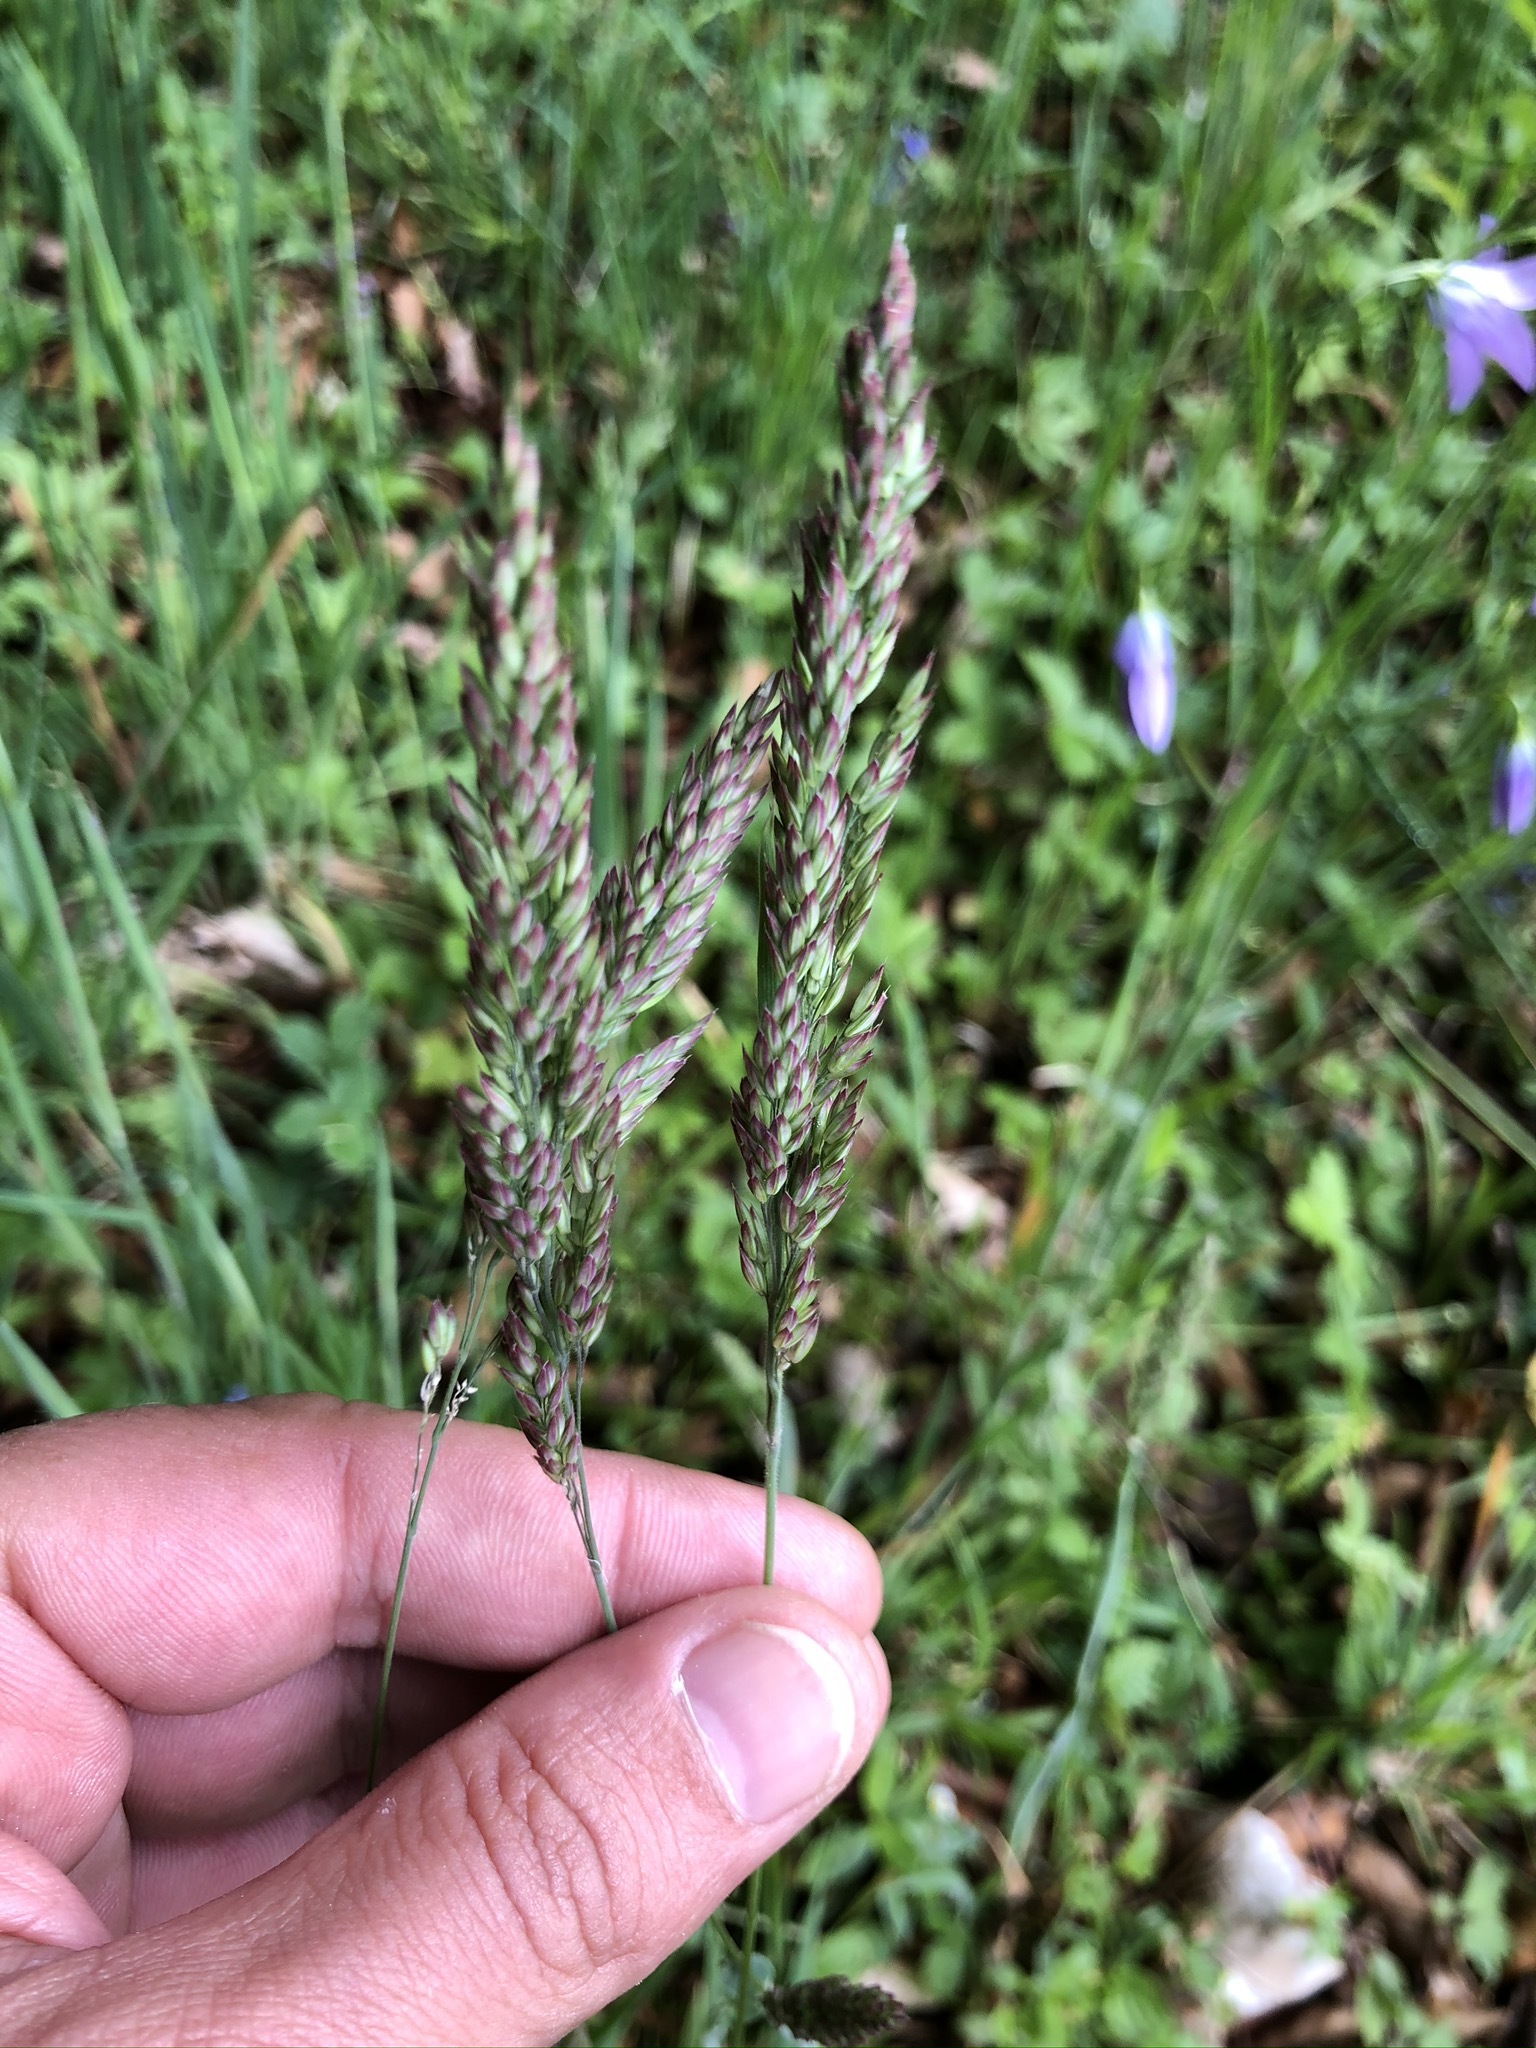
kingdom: Plantae
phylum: Tracheophyta
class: Liliopsida
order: Poales
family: Poaceae
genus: Holcus
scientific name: Holcus lanatus
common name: Yorkshire-fog
